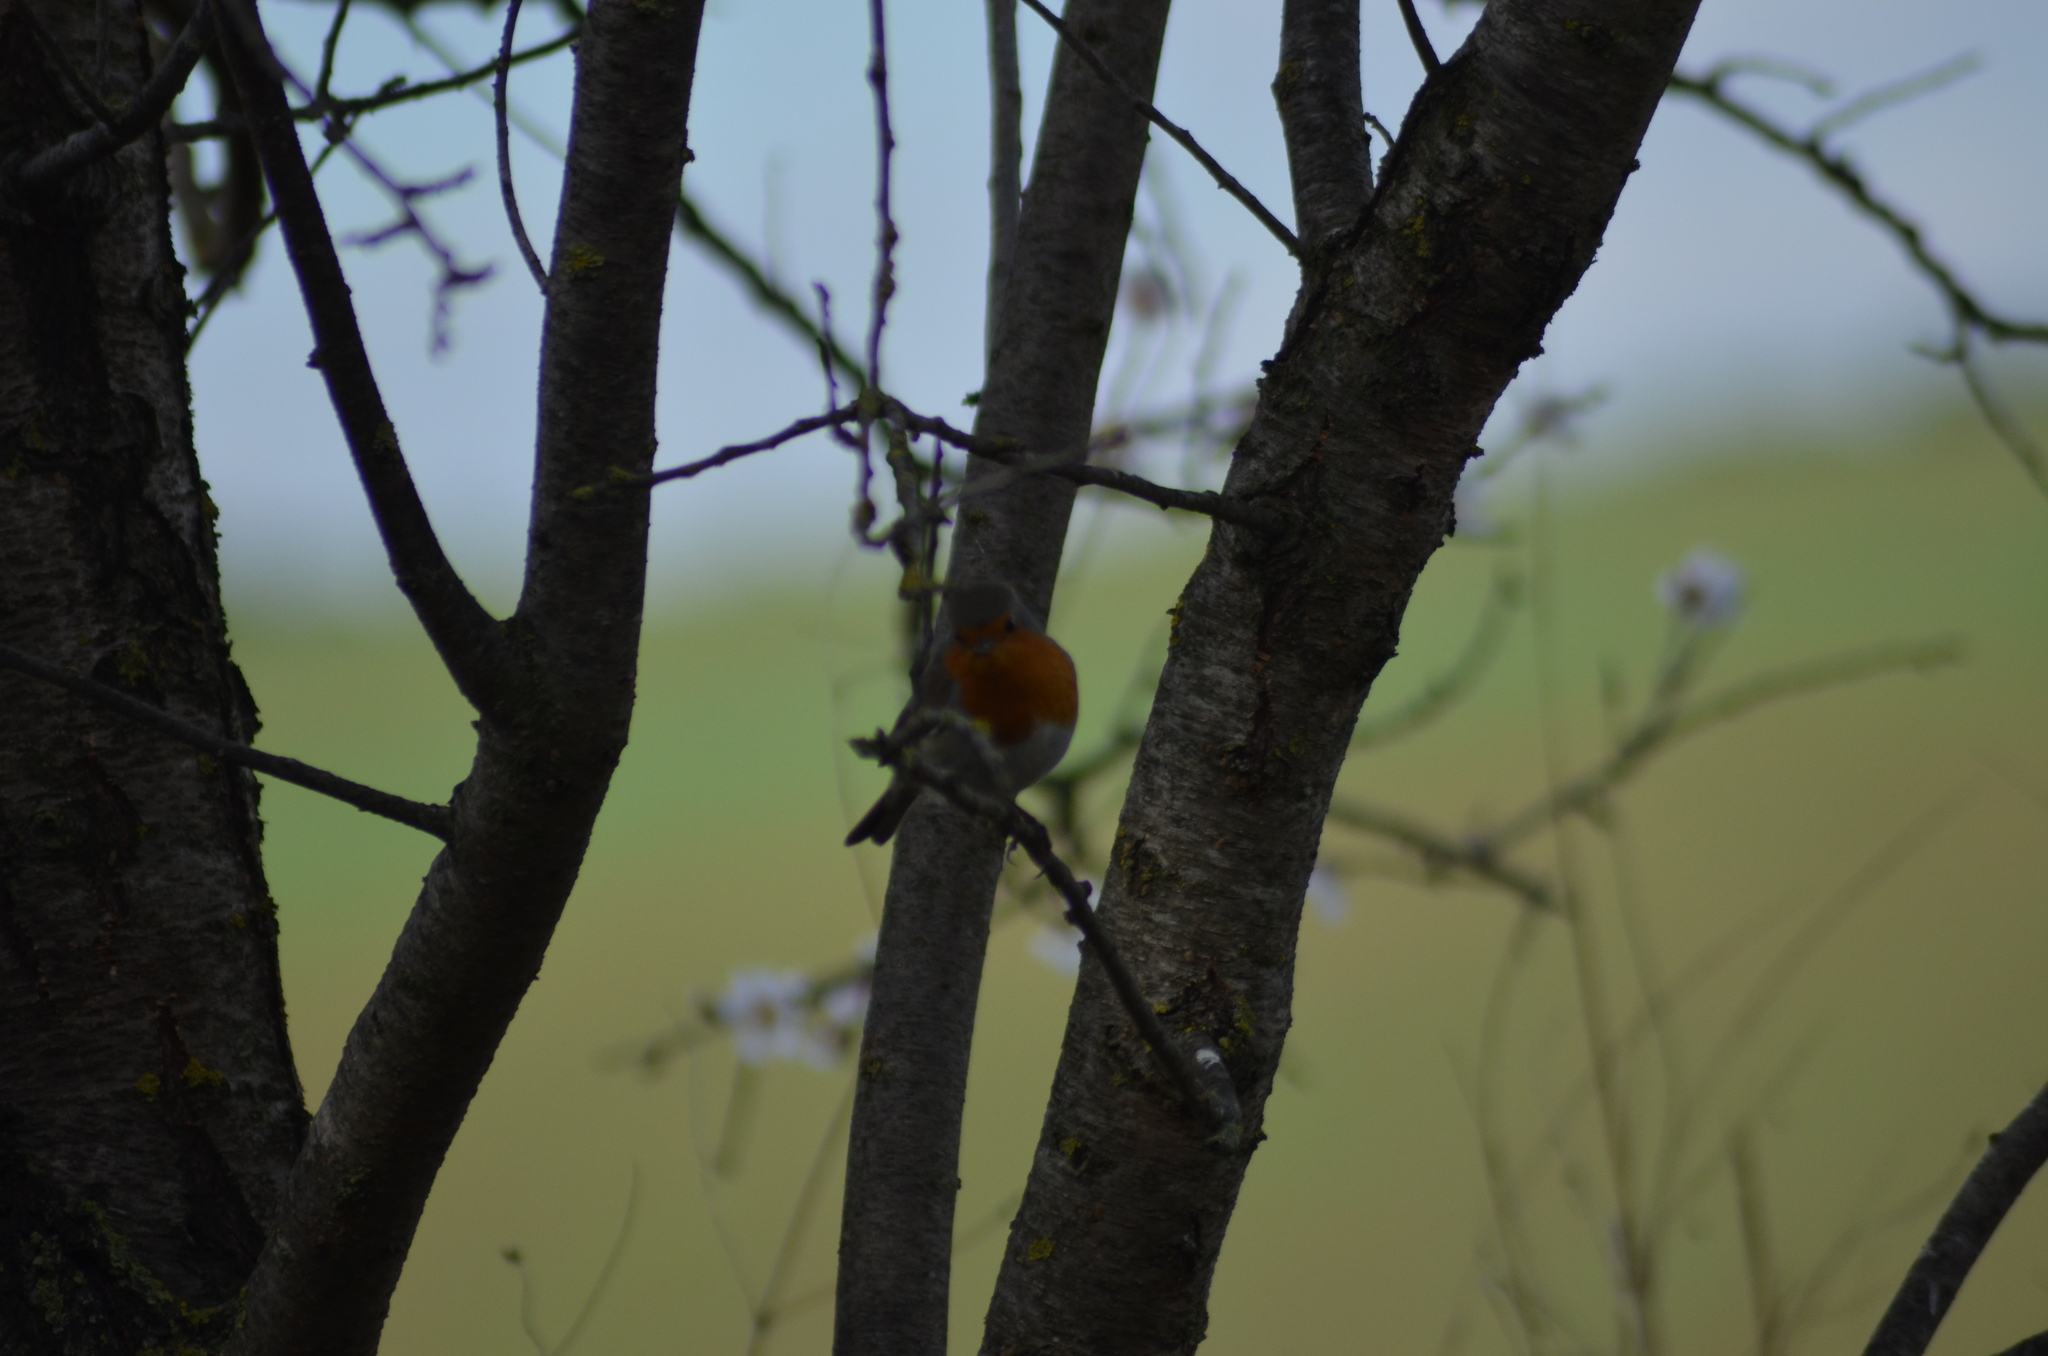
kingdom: Animalia
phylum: Chordata
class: Aves
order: Passeriformes
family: Muscicapidae
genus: Erithacus
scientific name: Erithacus rubecula
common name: European robin
